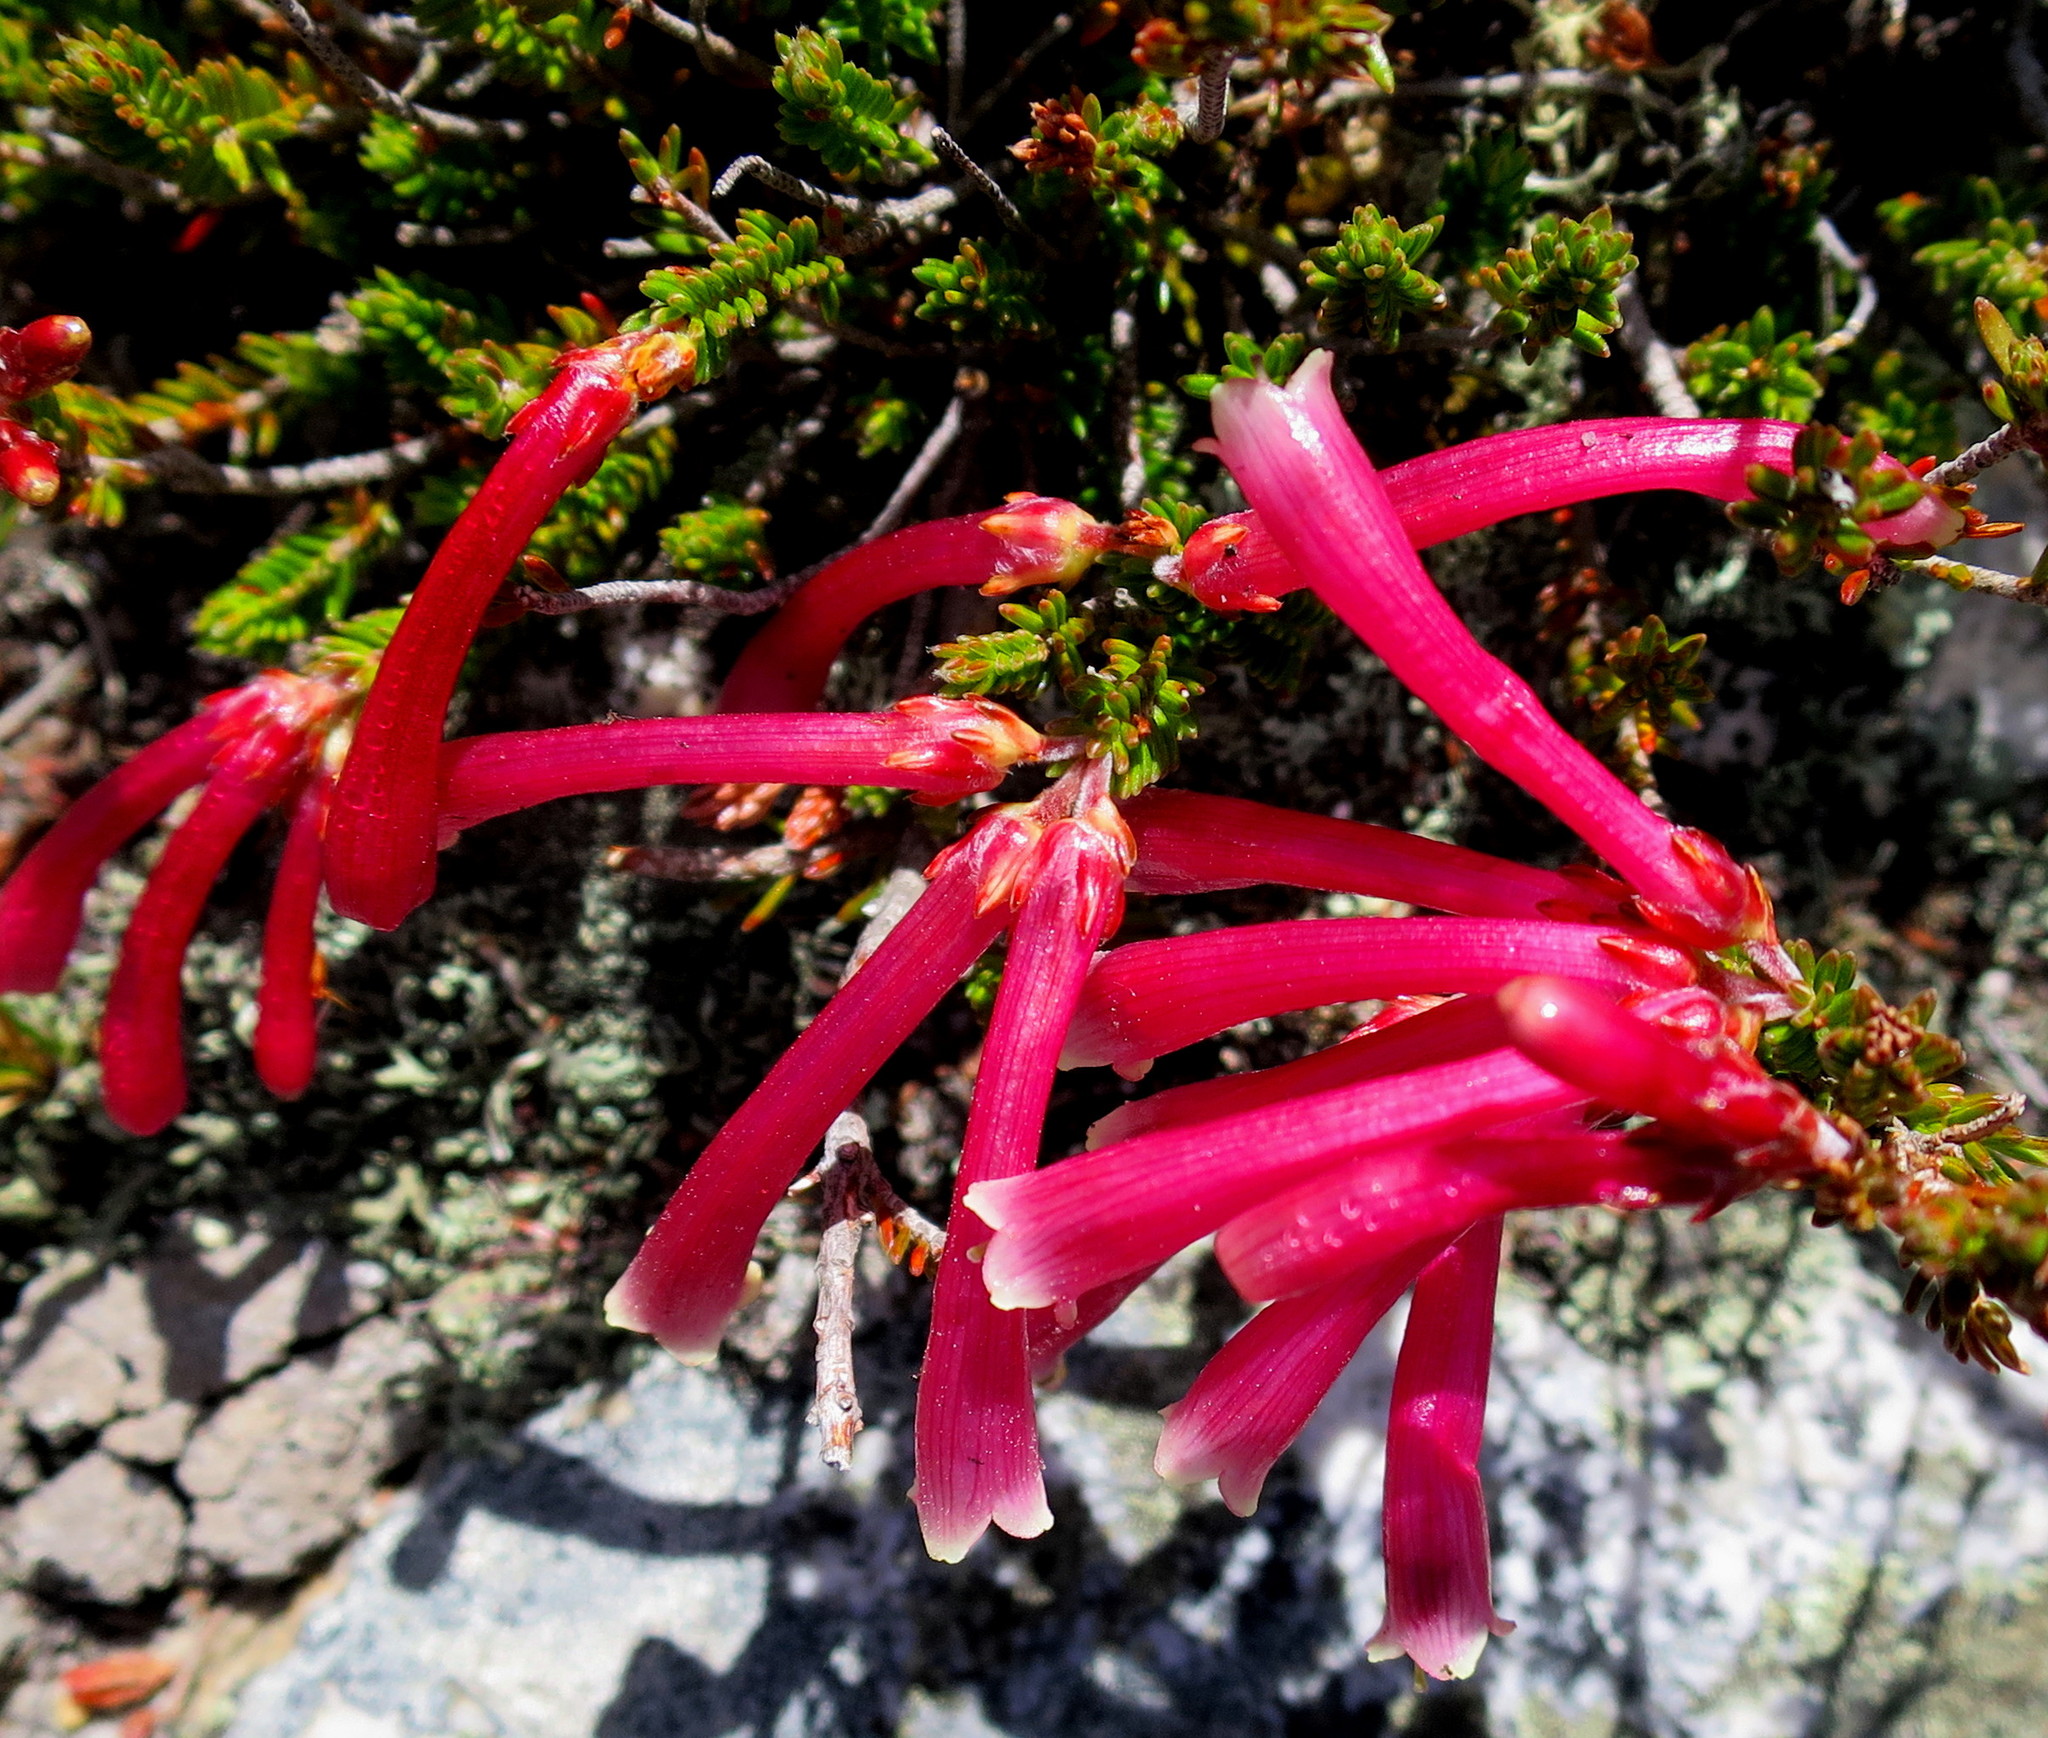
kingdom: Plantae
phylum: Tracheophyta
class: Magnoliopsida
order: Ericales
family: Ericaceae
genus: Erica
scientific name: Erica discolor
